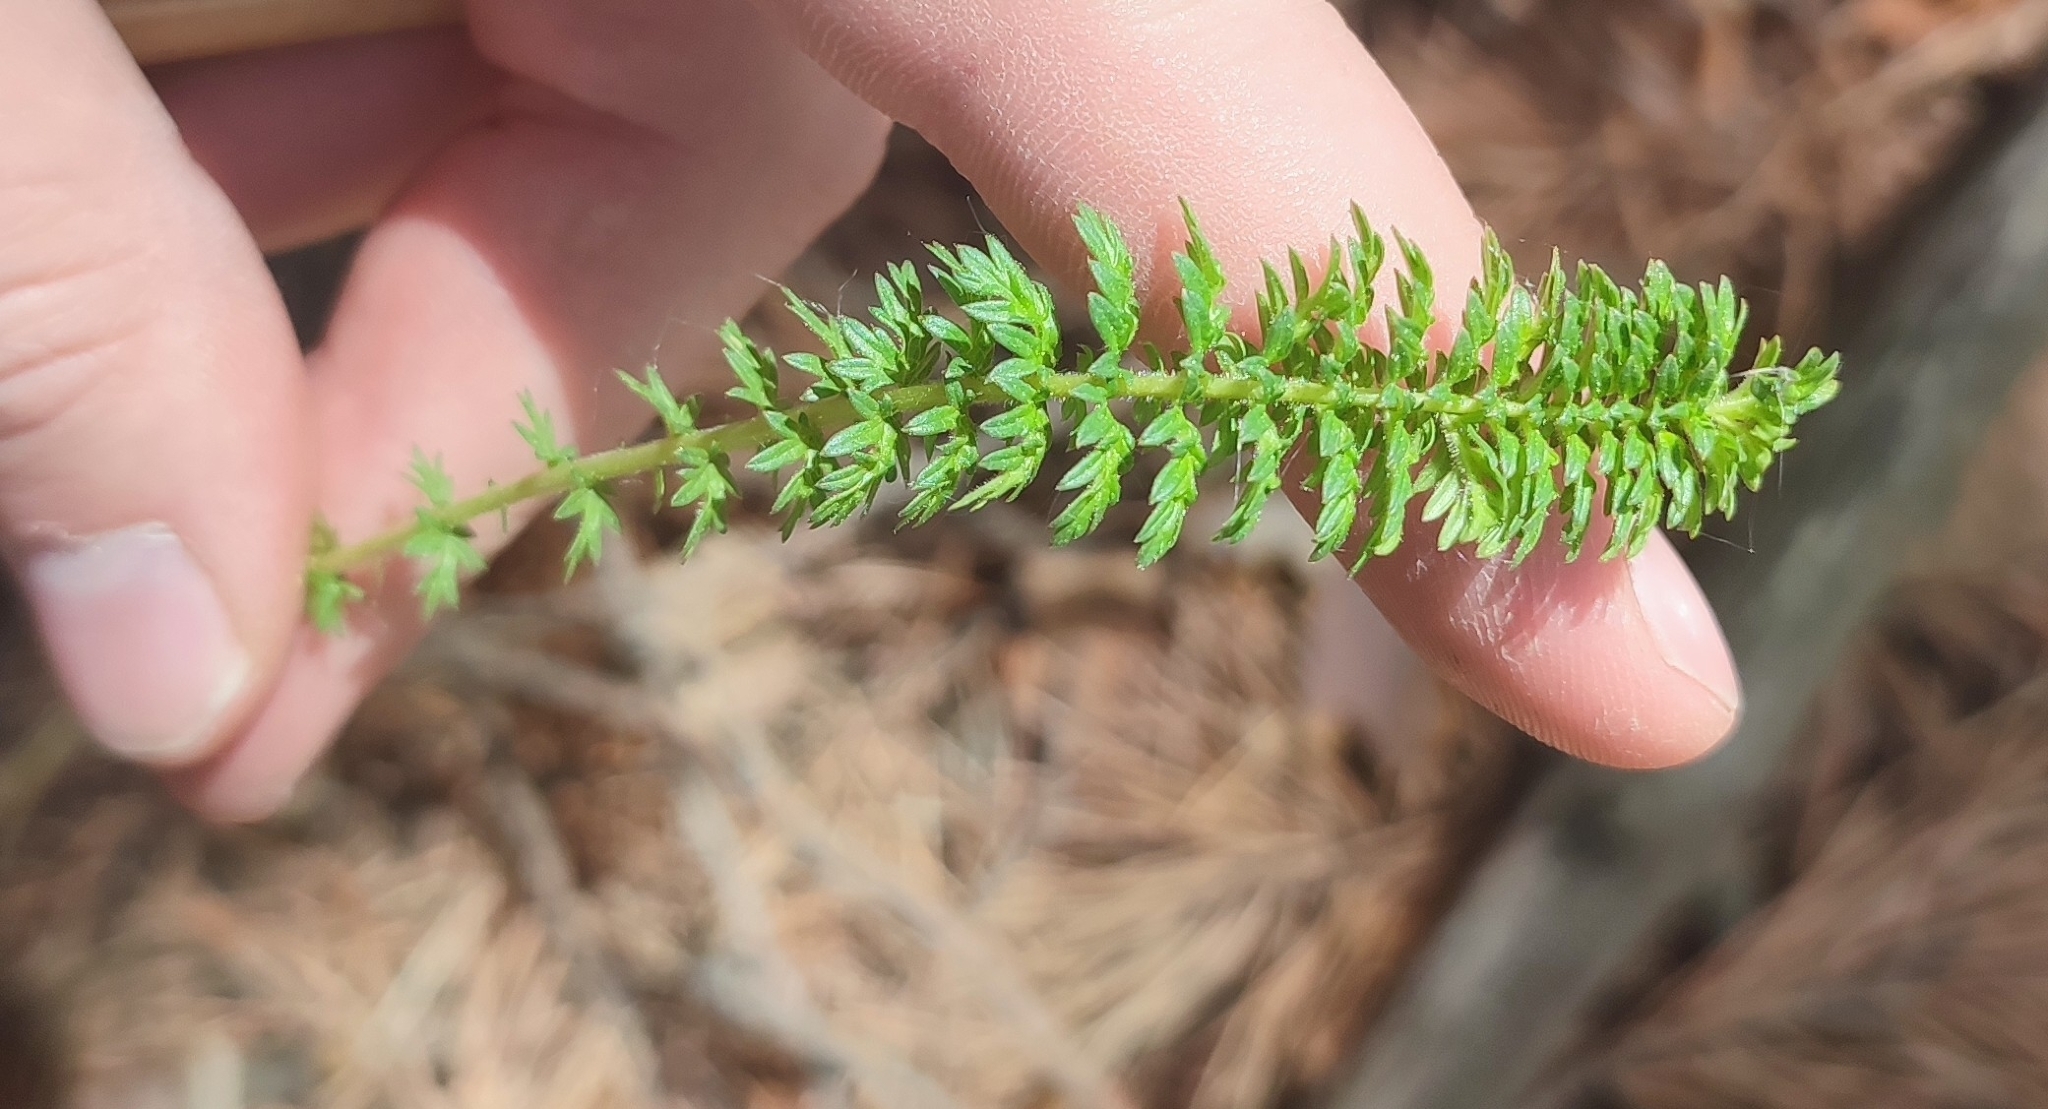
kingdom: Plantae
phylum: Tracheophyta
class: Magnoliopsida
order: Rosales
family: Rosaceae
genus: Filipendula
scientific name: Filipendula vulgaris
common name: Dropwort
